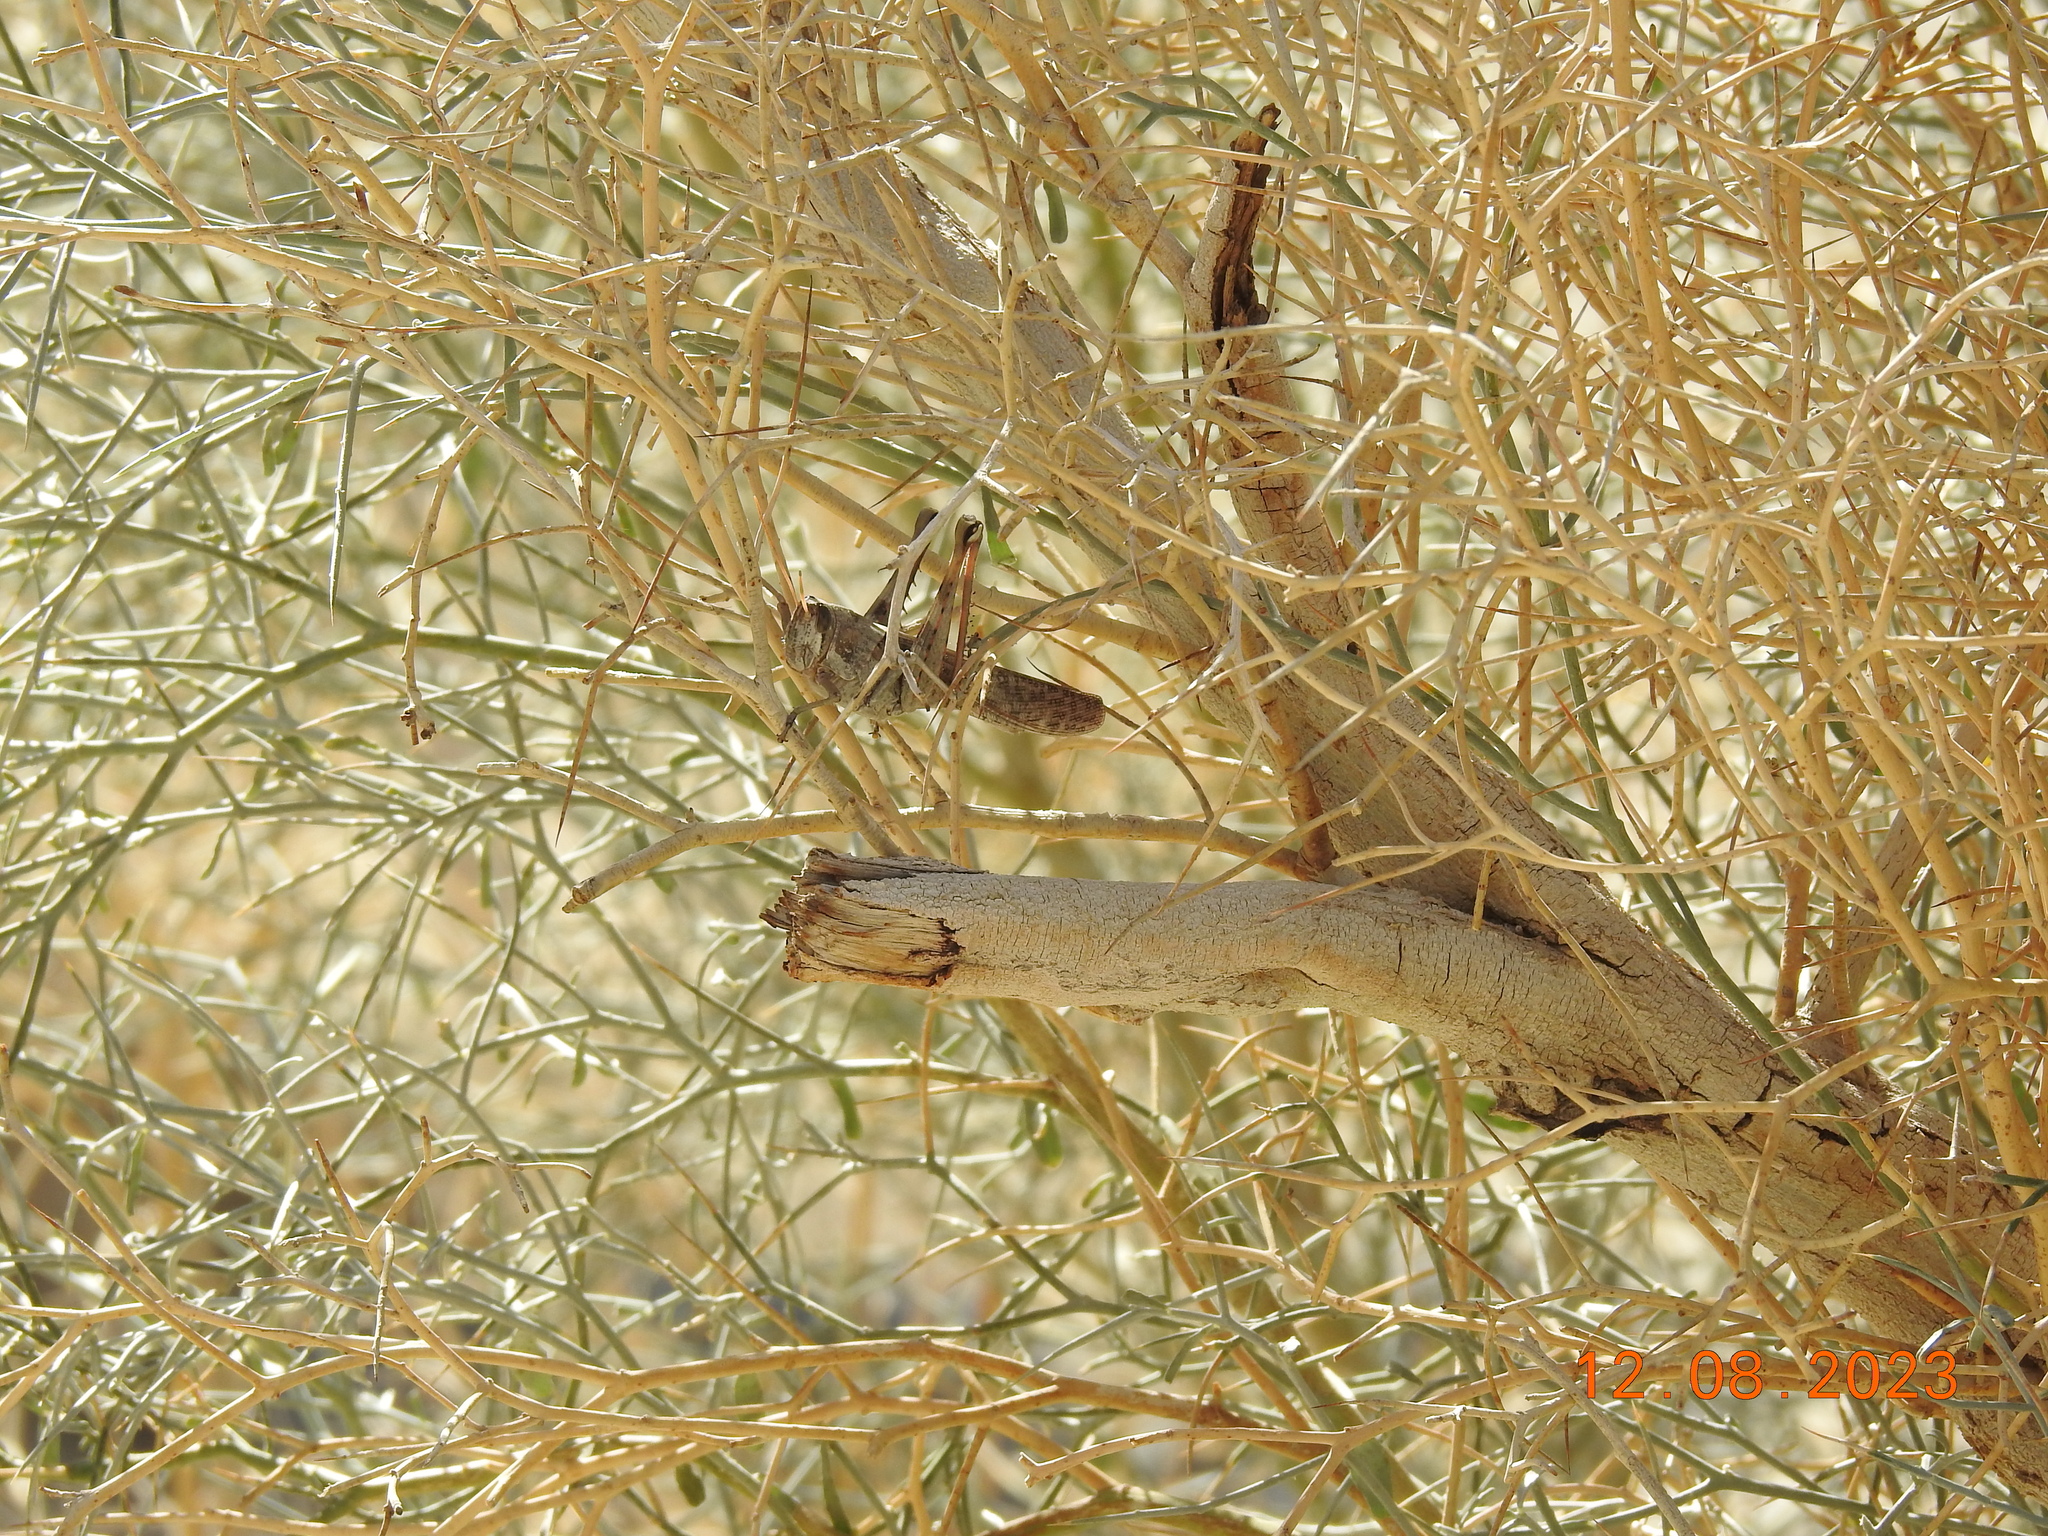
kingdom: Animalia
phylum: Arthropoda
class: Insecta
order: Orthoptera
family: Acrididae
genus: Schistocerca
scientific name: Schistocerca nitens
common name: Vagrant grasshopper
